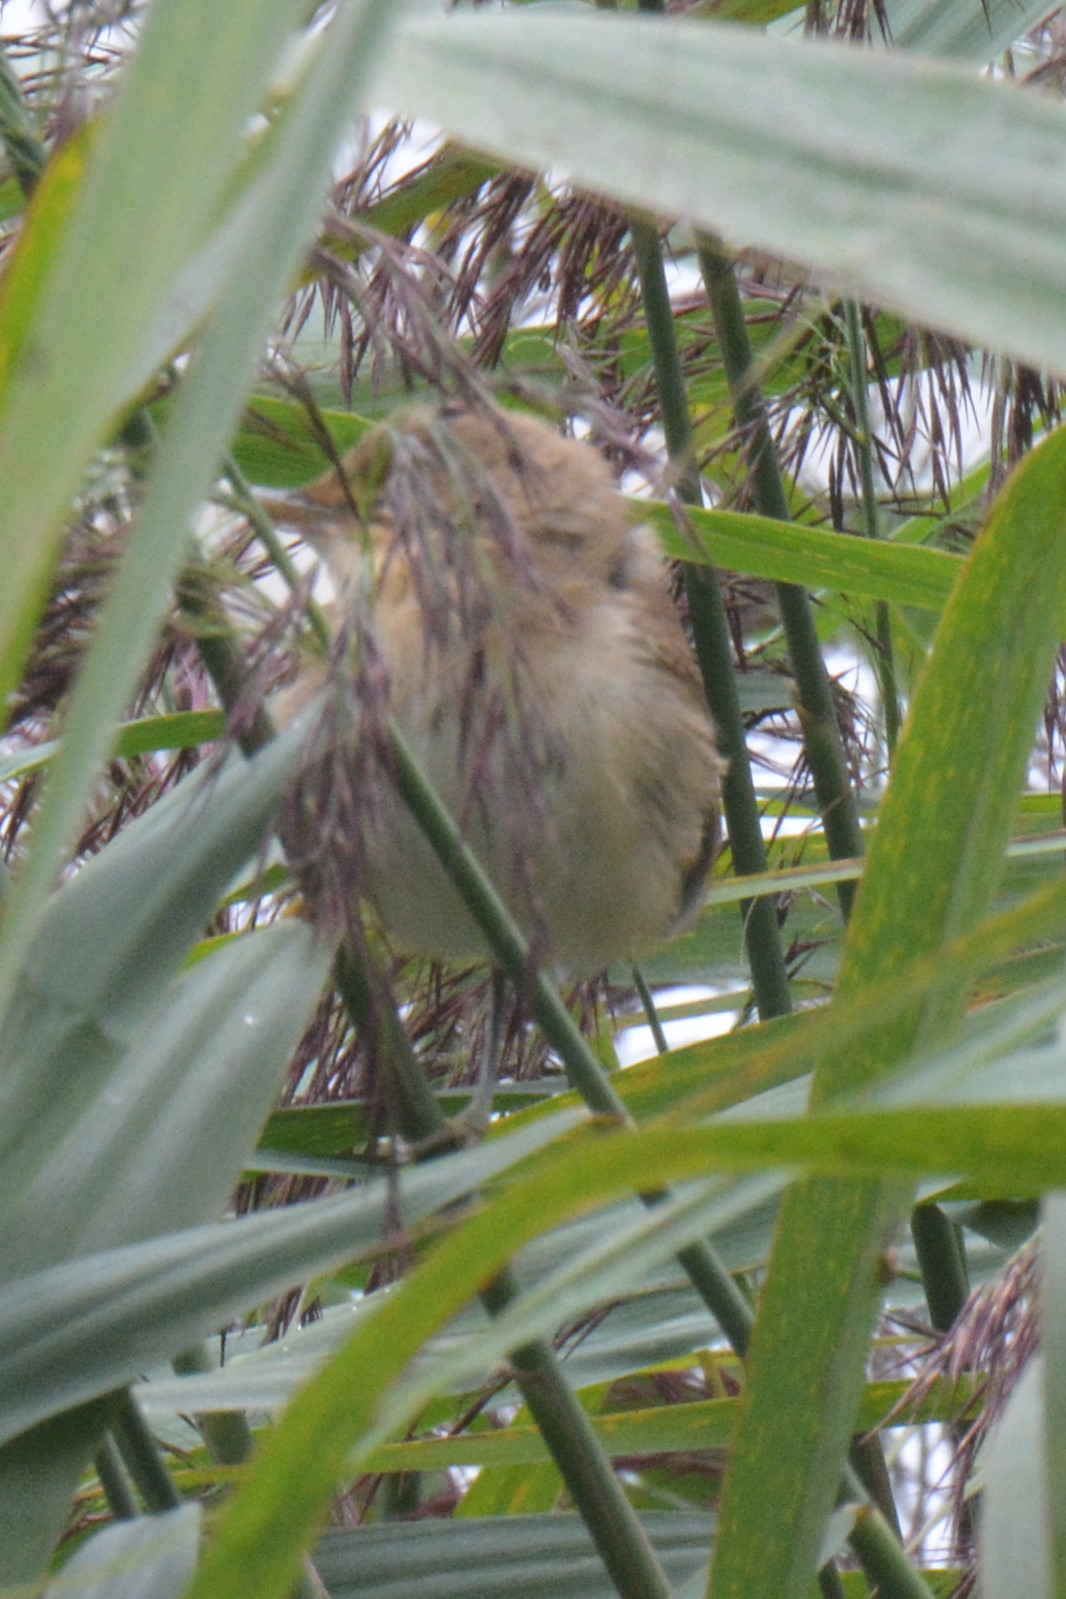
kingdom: Animalia
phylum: Chordata
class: Aves
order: Passeriformes
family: Acrocephalidae
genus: Acrocephalus
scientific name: Acrocephalus scirpaceus
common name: Eurasian reed warbler
